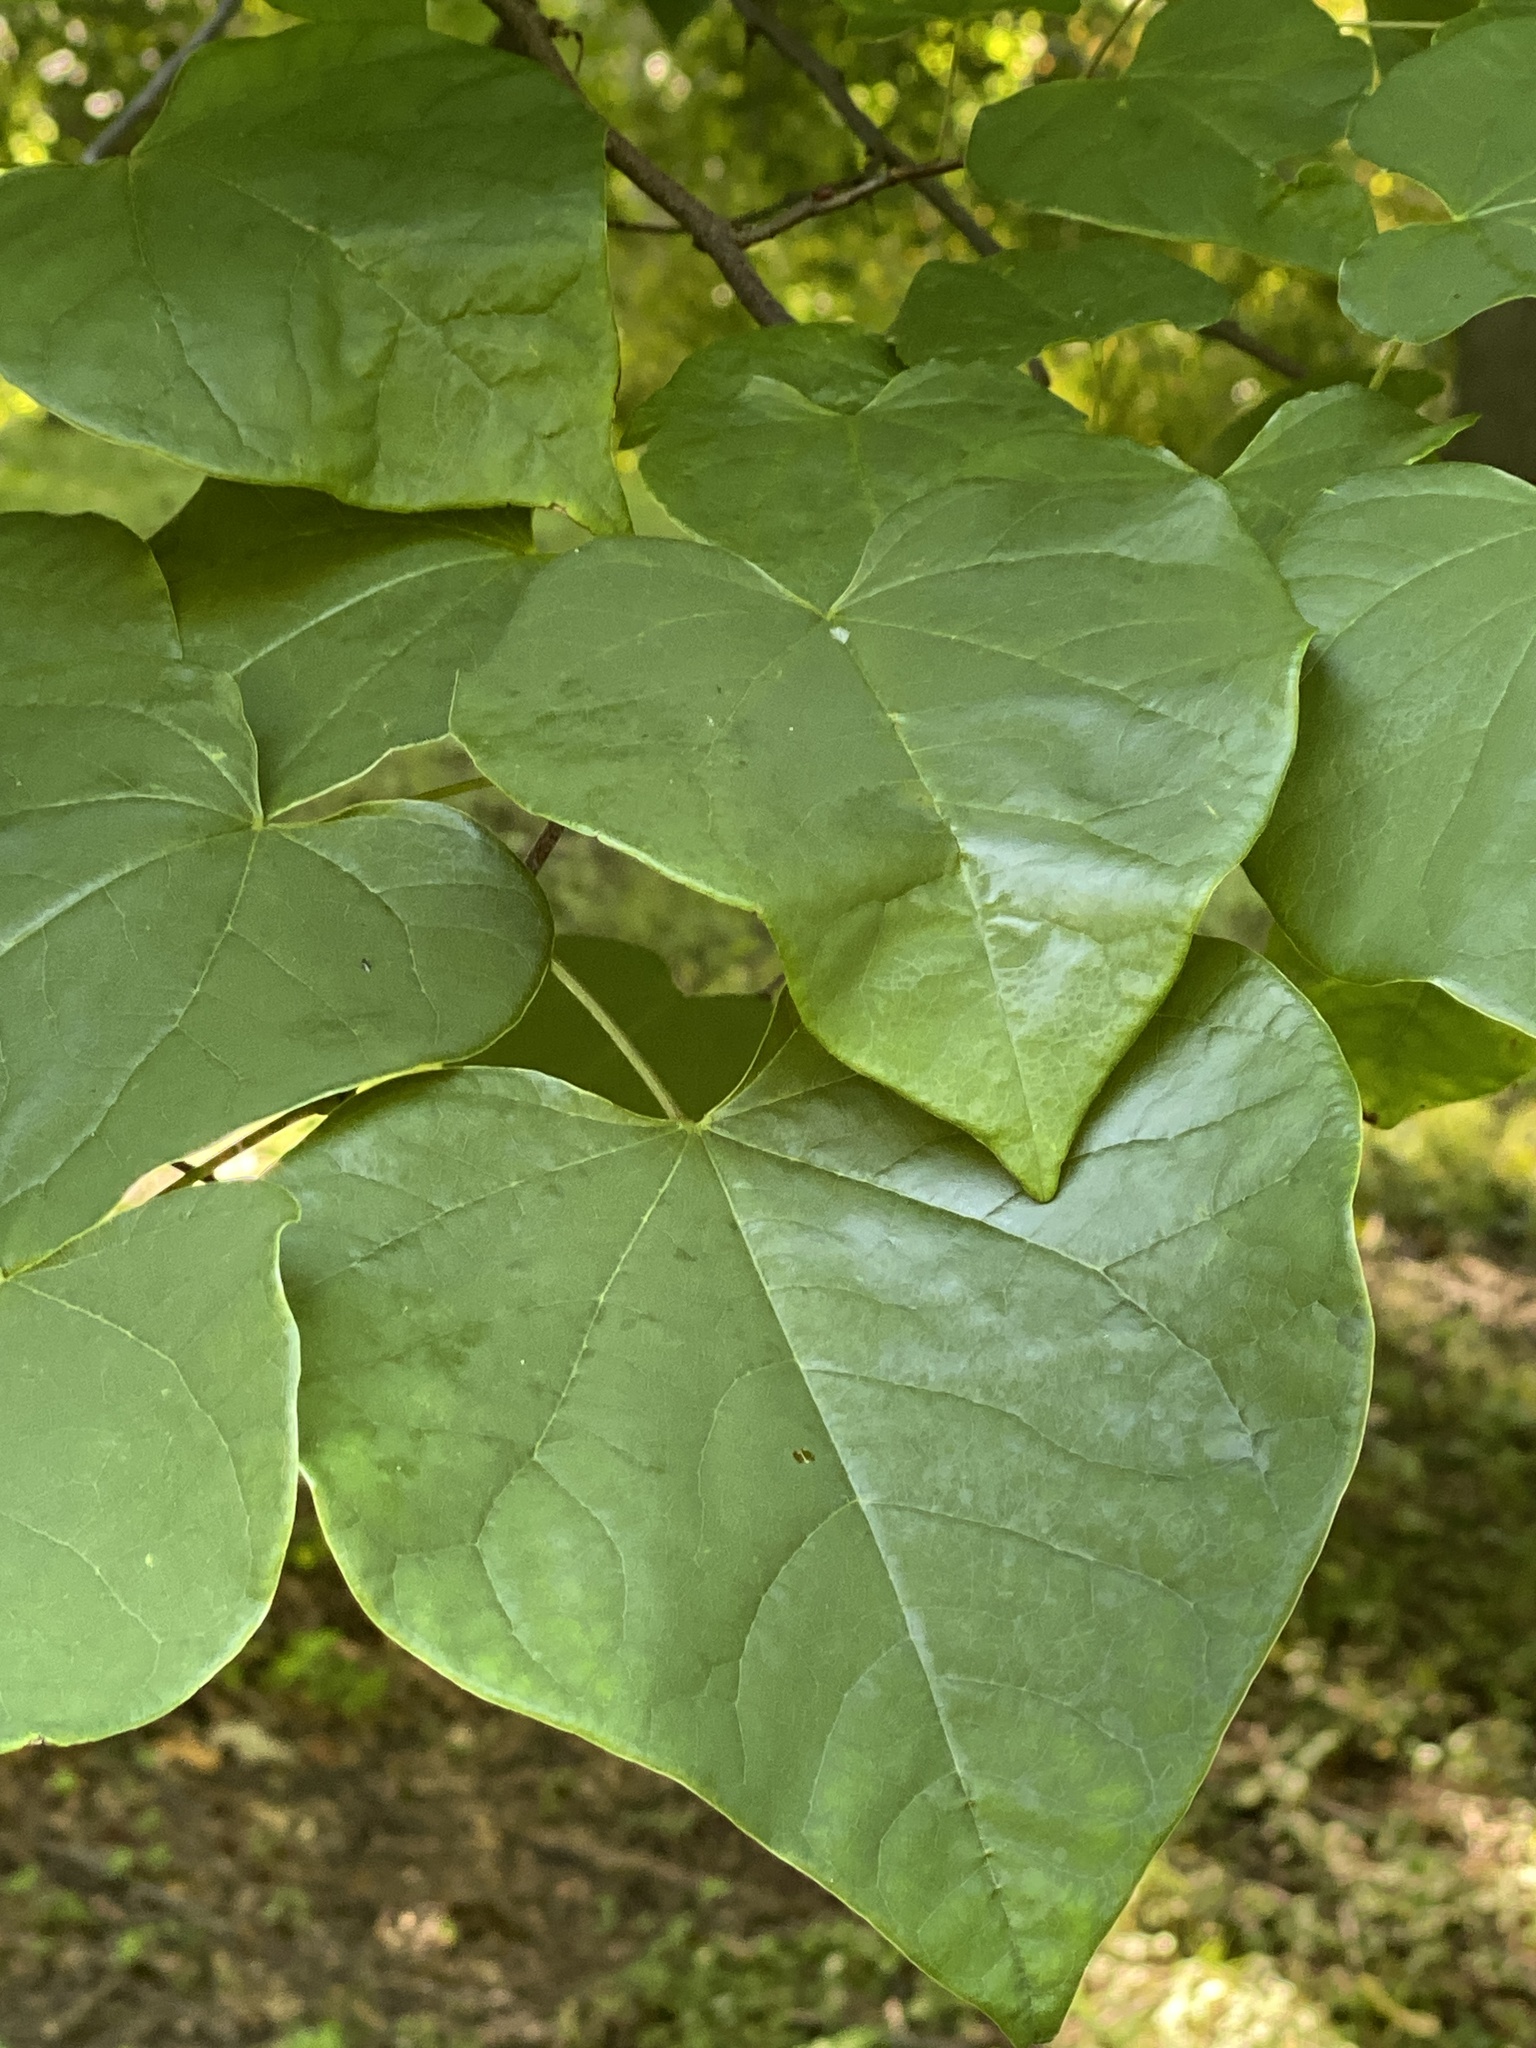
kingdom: Plantae
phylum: Tracheophyta
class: Magnoliopsida
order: Fabales
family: Fabaceae
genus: Cercis
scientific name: Cercis canadensis
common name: Eastern redbud
